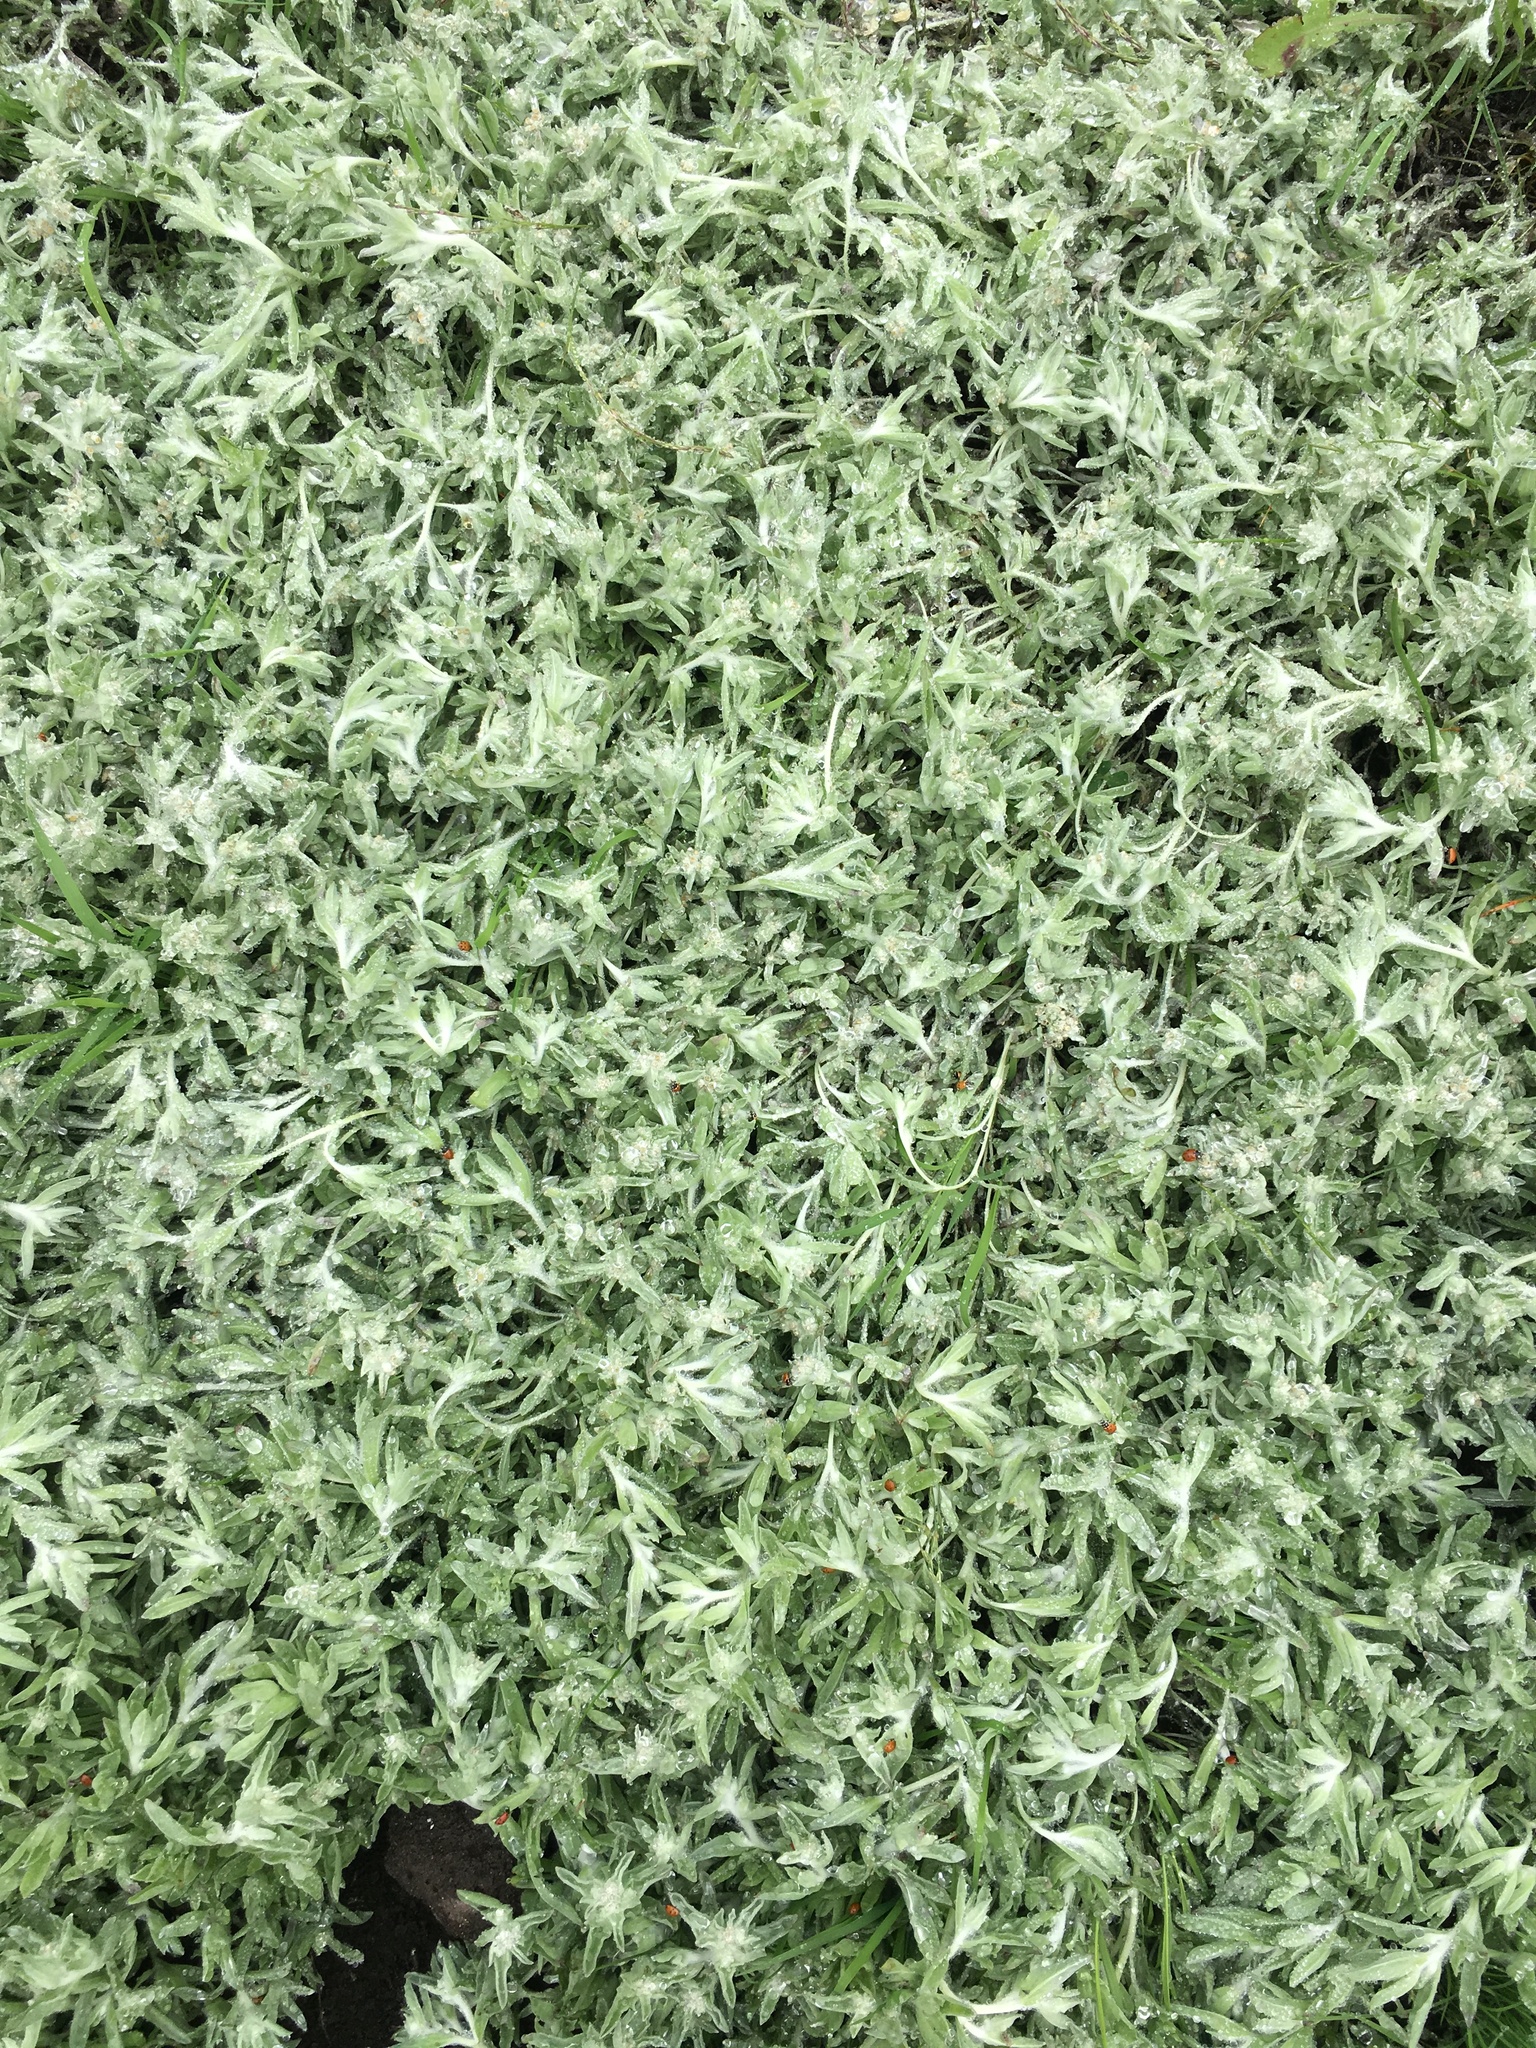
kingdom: Plantae
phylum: Tracheophyta
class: Magnoliopsida
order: Asterales
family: Asteraceae
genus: Gnaphalium
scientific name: Gnaphalium palustre
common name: Western marsh cudweed
